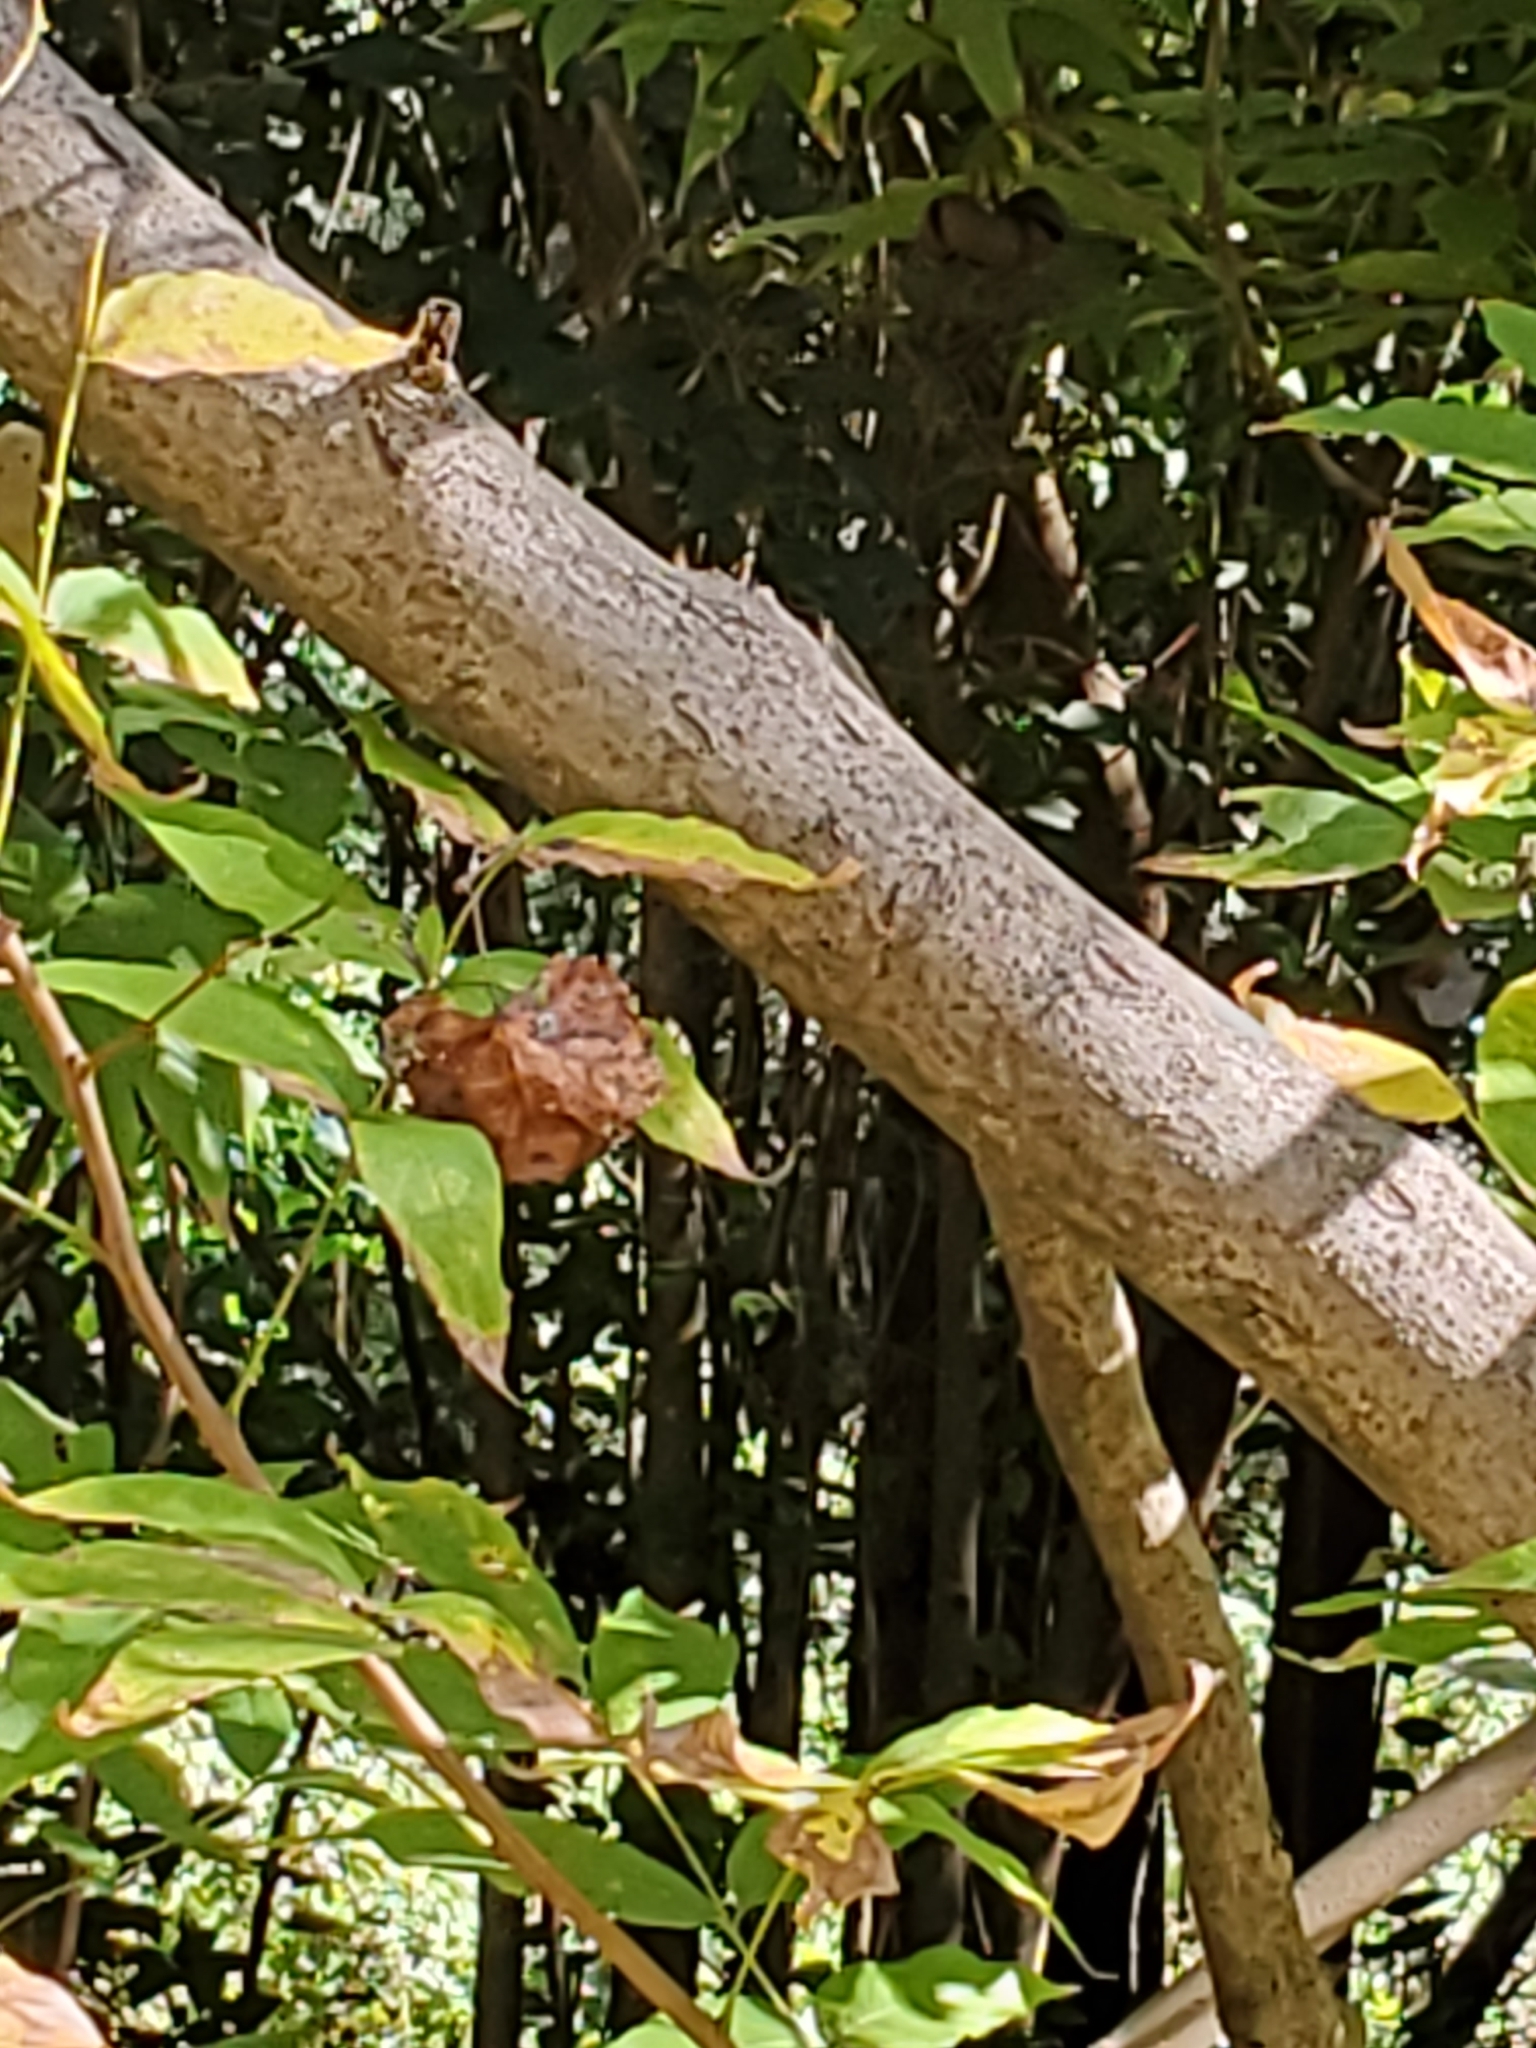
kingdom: Plantae
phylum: Tracheophyta
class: Magnoliopsida
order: Sapindales
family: Sapindaceae
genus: Ungnadia
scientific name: Ungnadia speciosa
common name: Texas-buckeye
